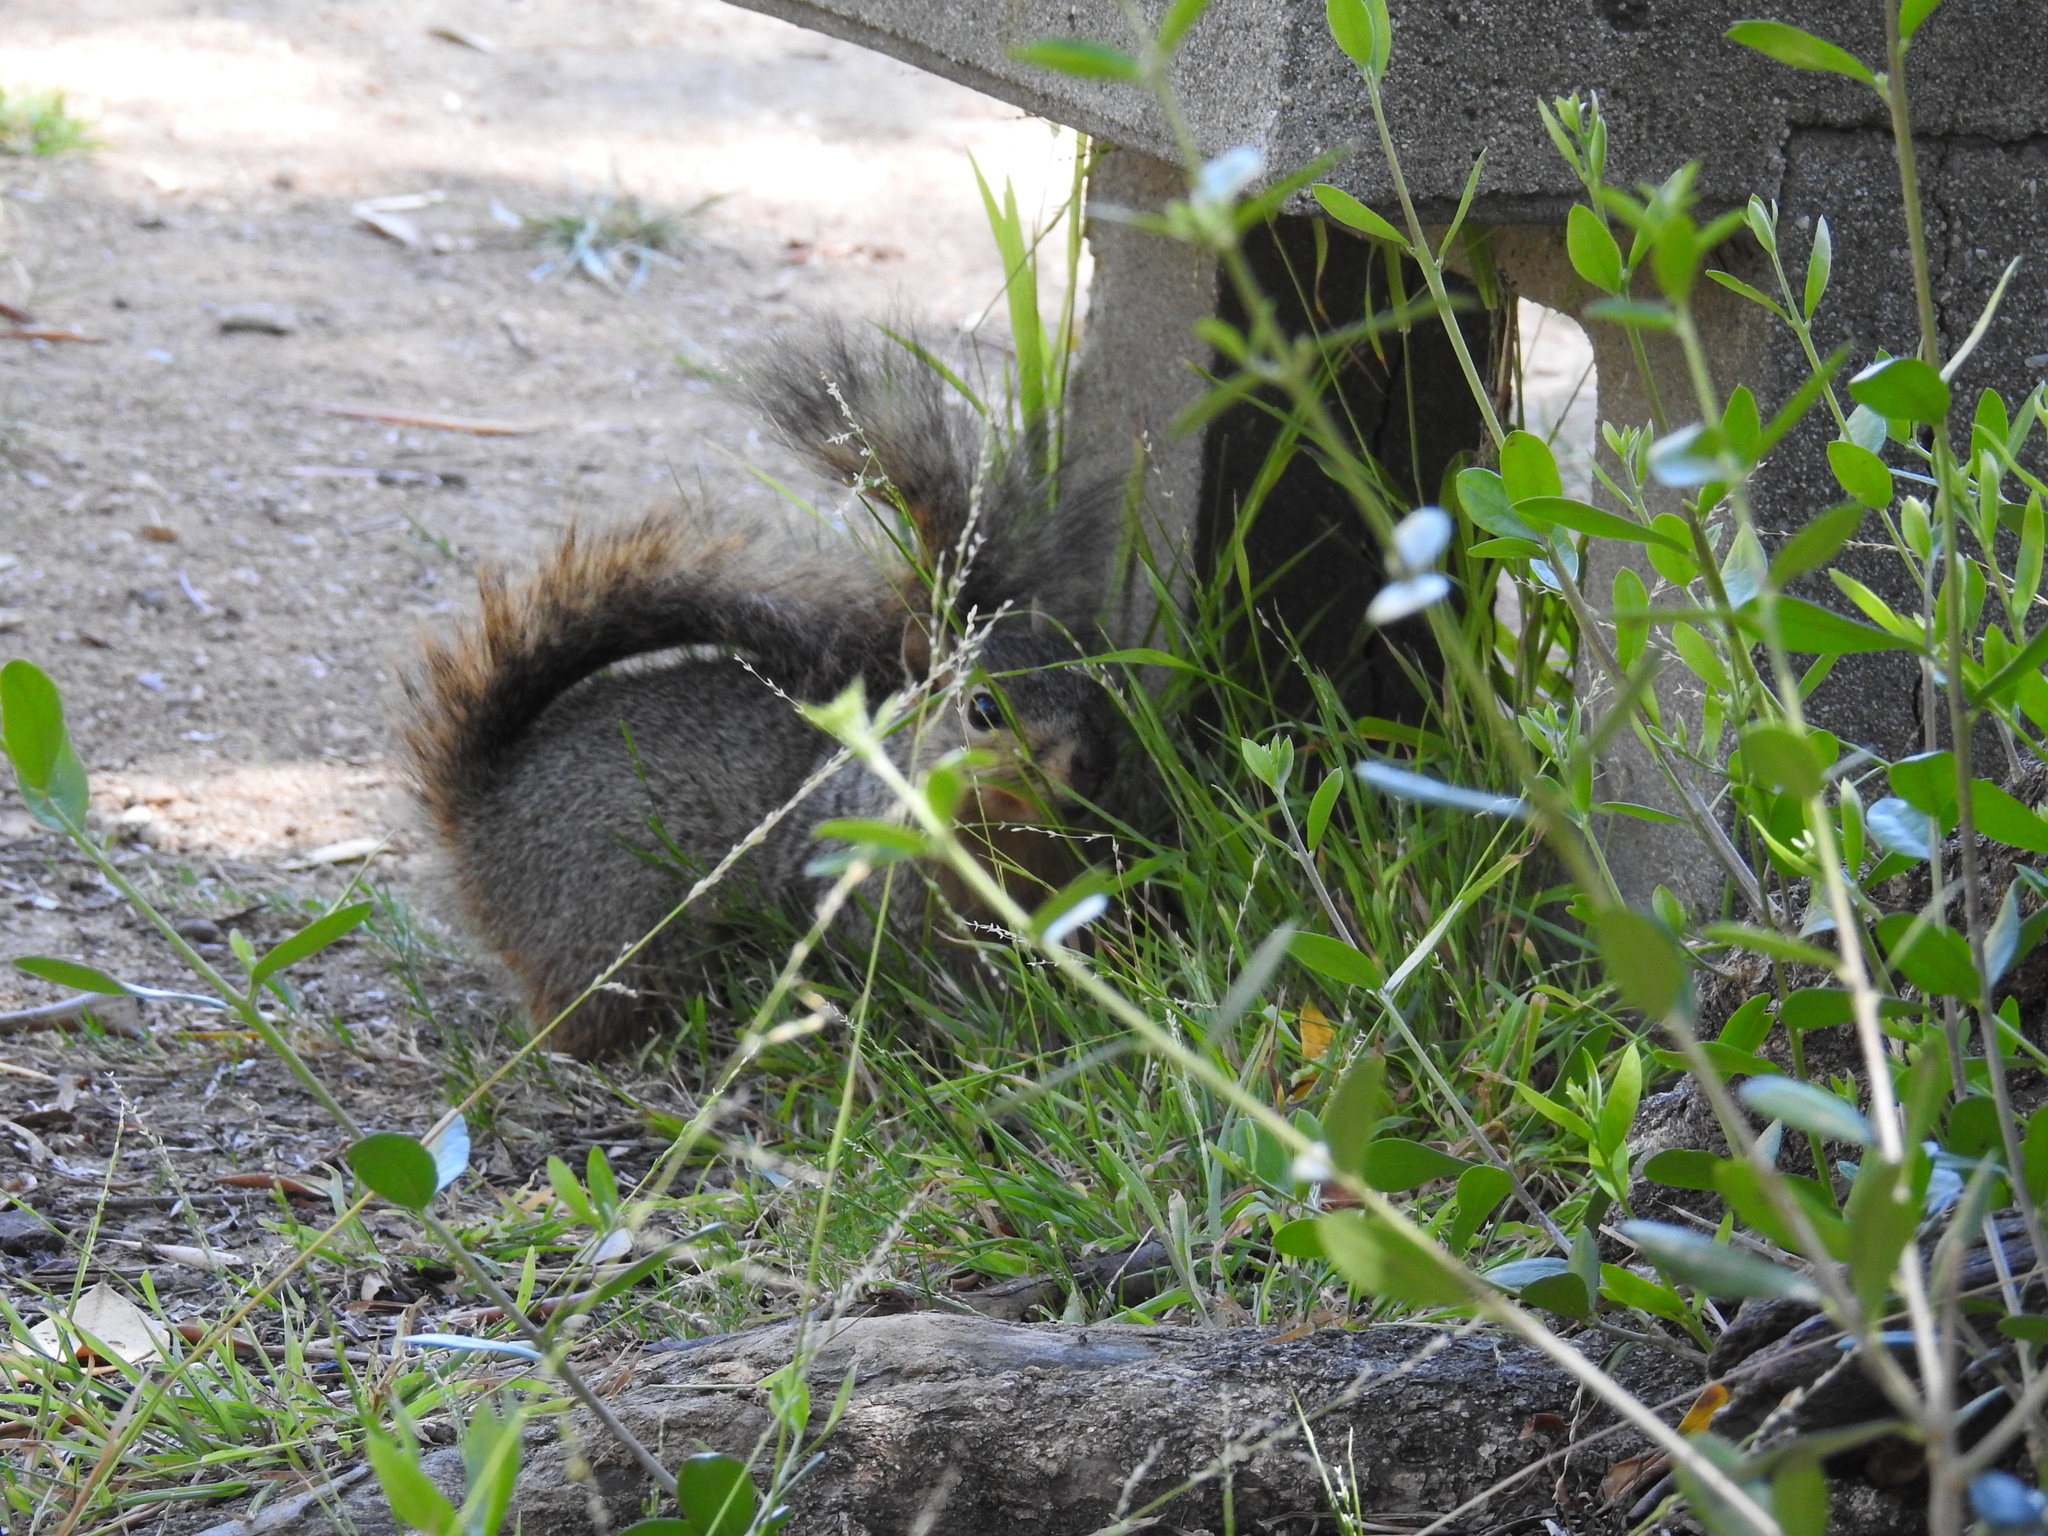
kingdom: Animalia
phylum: Chordata
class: Mammalia
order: Rodentia
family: Sciuridae
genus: Sciurus
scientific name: Sciurus niger
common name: Fox squirrel
